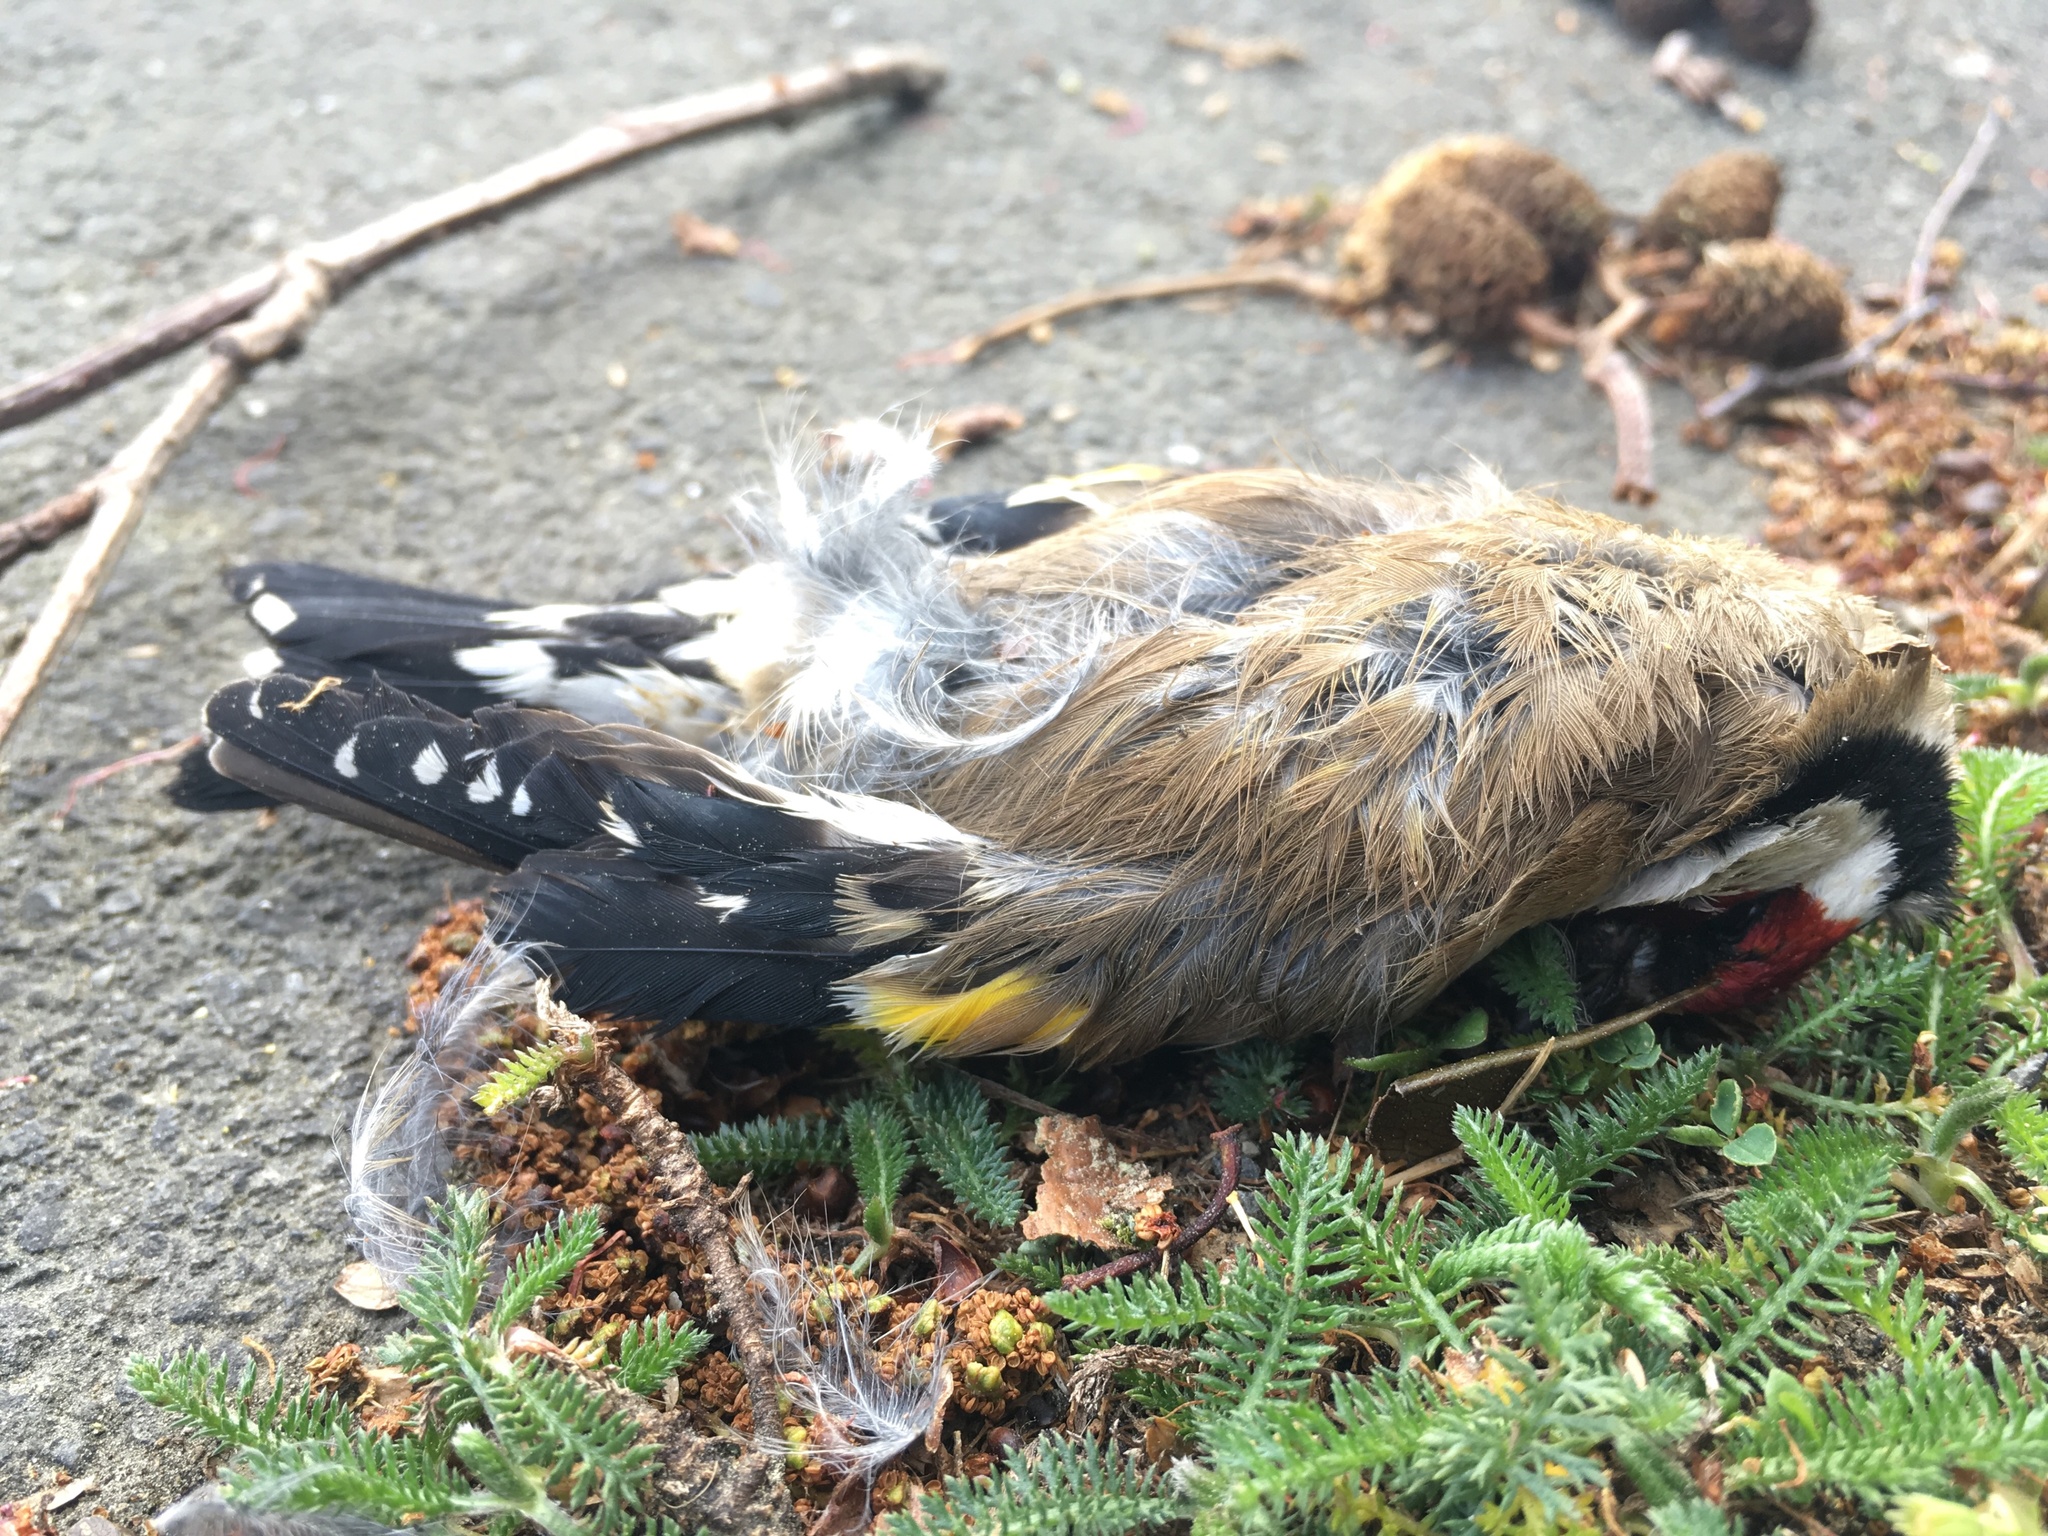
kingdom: Animalia
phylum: Chordata
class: Aves
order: Passeriformes
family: Fringillidae
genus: Carduelis
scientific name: Carduelis carduelis
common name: European goldfinch
